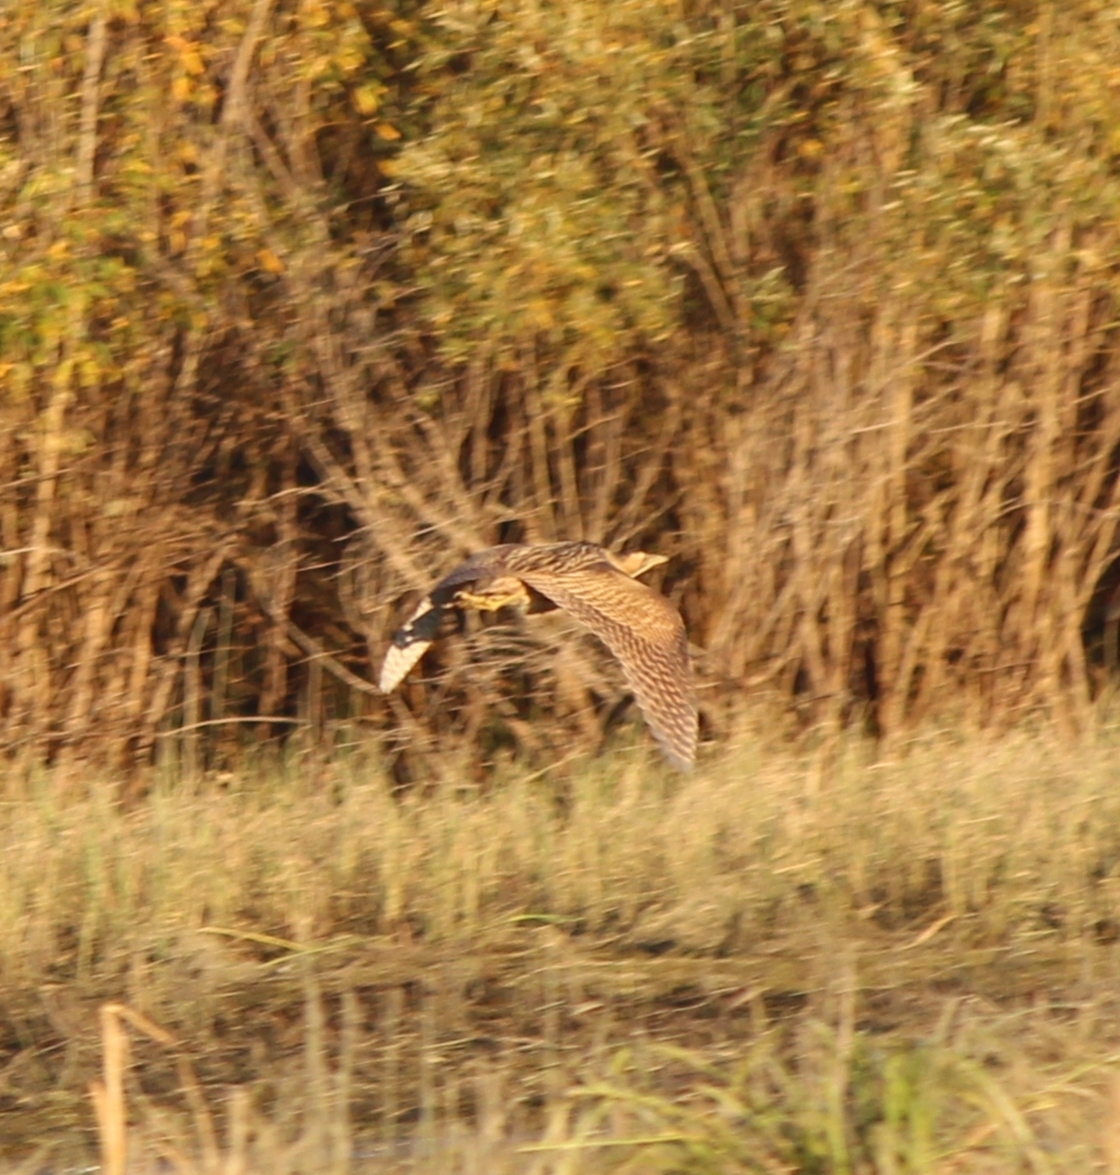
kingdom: Animalia
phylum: Chordata
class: Aves
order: Pelecaniformes
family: Ardeidae
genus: Botaurus
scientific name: Botaurus stellaris
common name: Eurasian bittern
